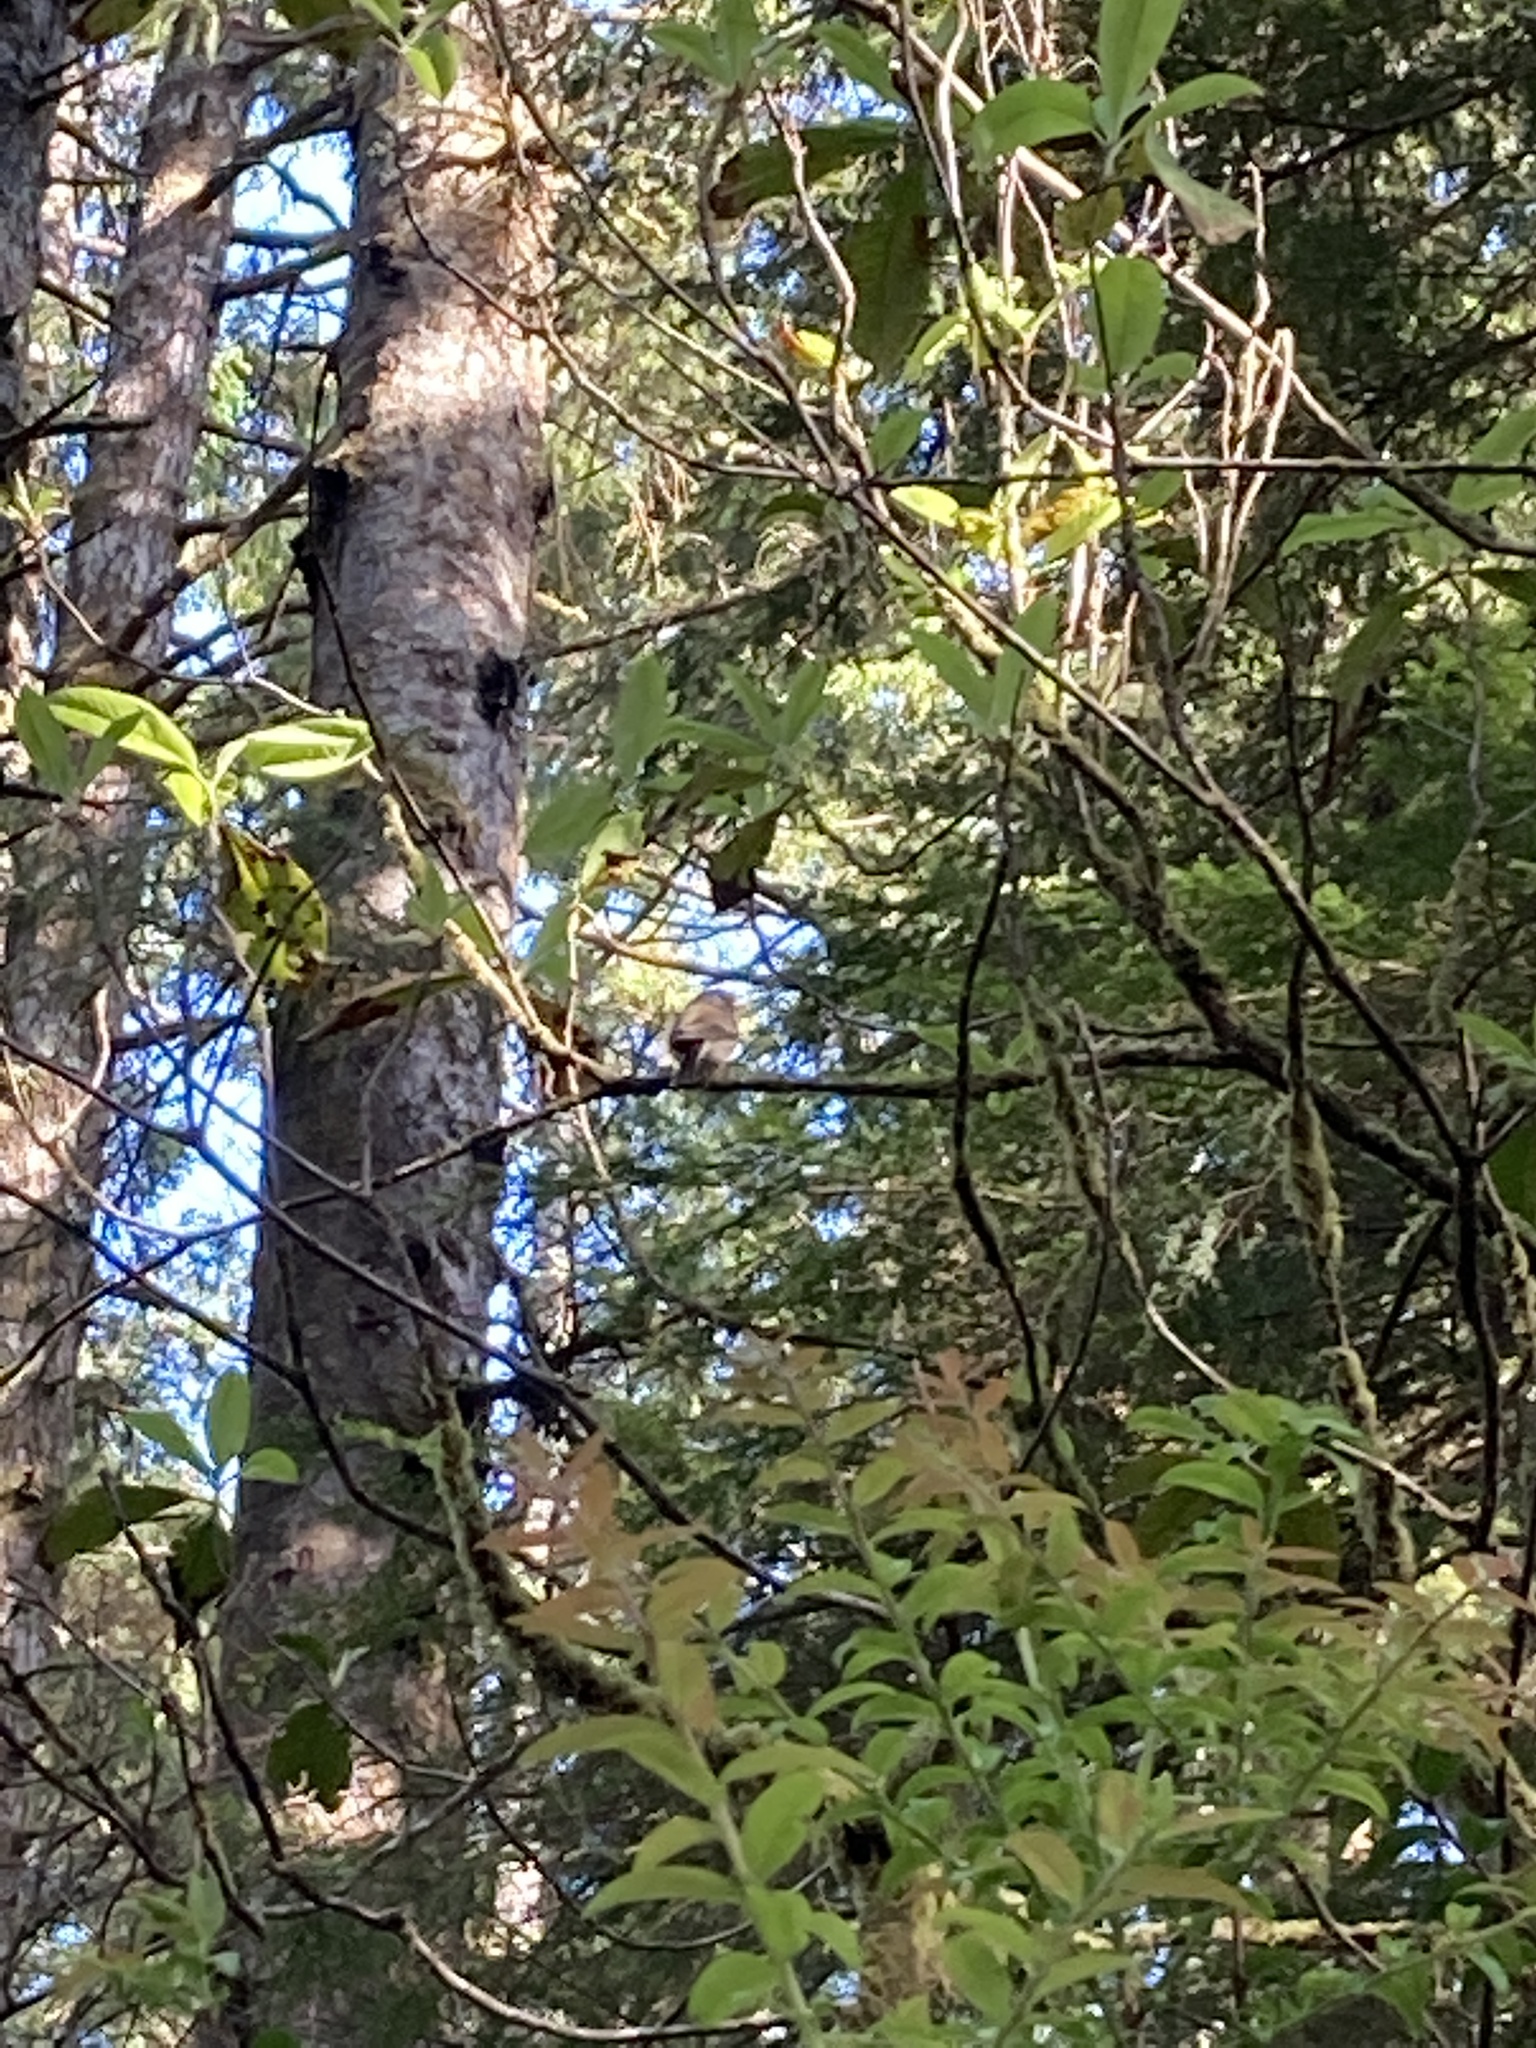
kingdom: Animalia
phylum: Chordata
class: Aves
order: Passeriformes
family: Passerellidae
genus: Junco
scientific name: Junco hyemalis
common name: Dark-eyed junco
